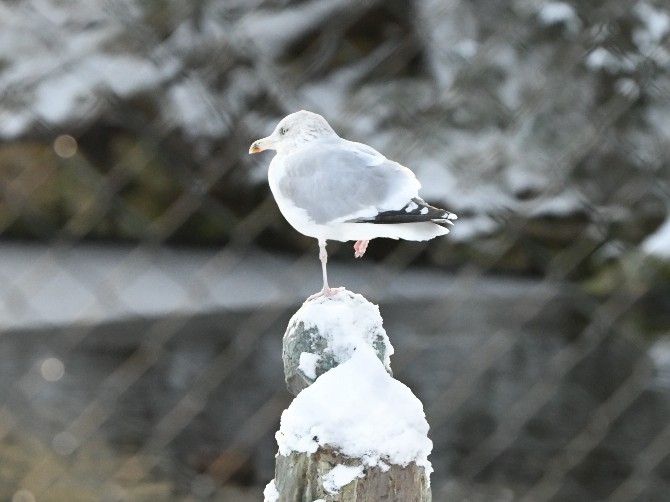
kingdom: Animalia
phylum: Chordata
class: Aves
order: Charadriiformes
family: Laridae
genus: Larus
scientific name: Larus argentatus
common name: Herring gull
